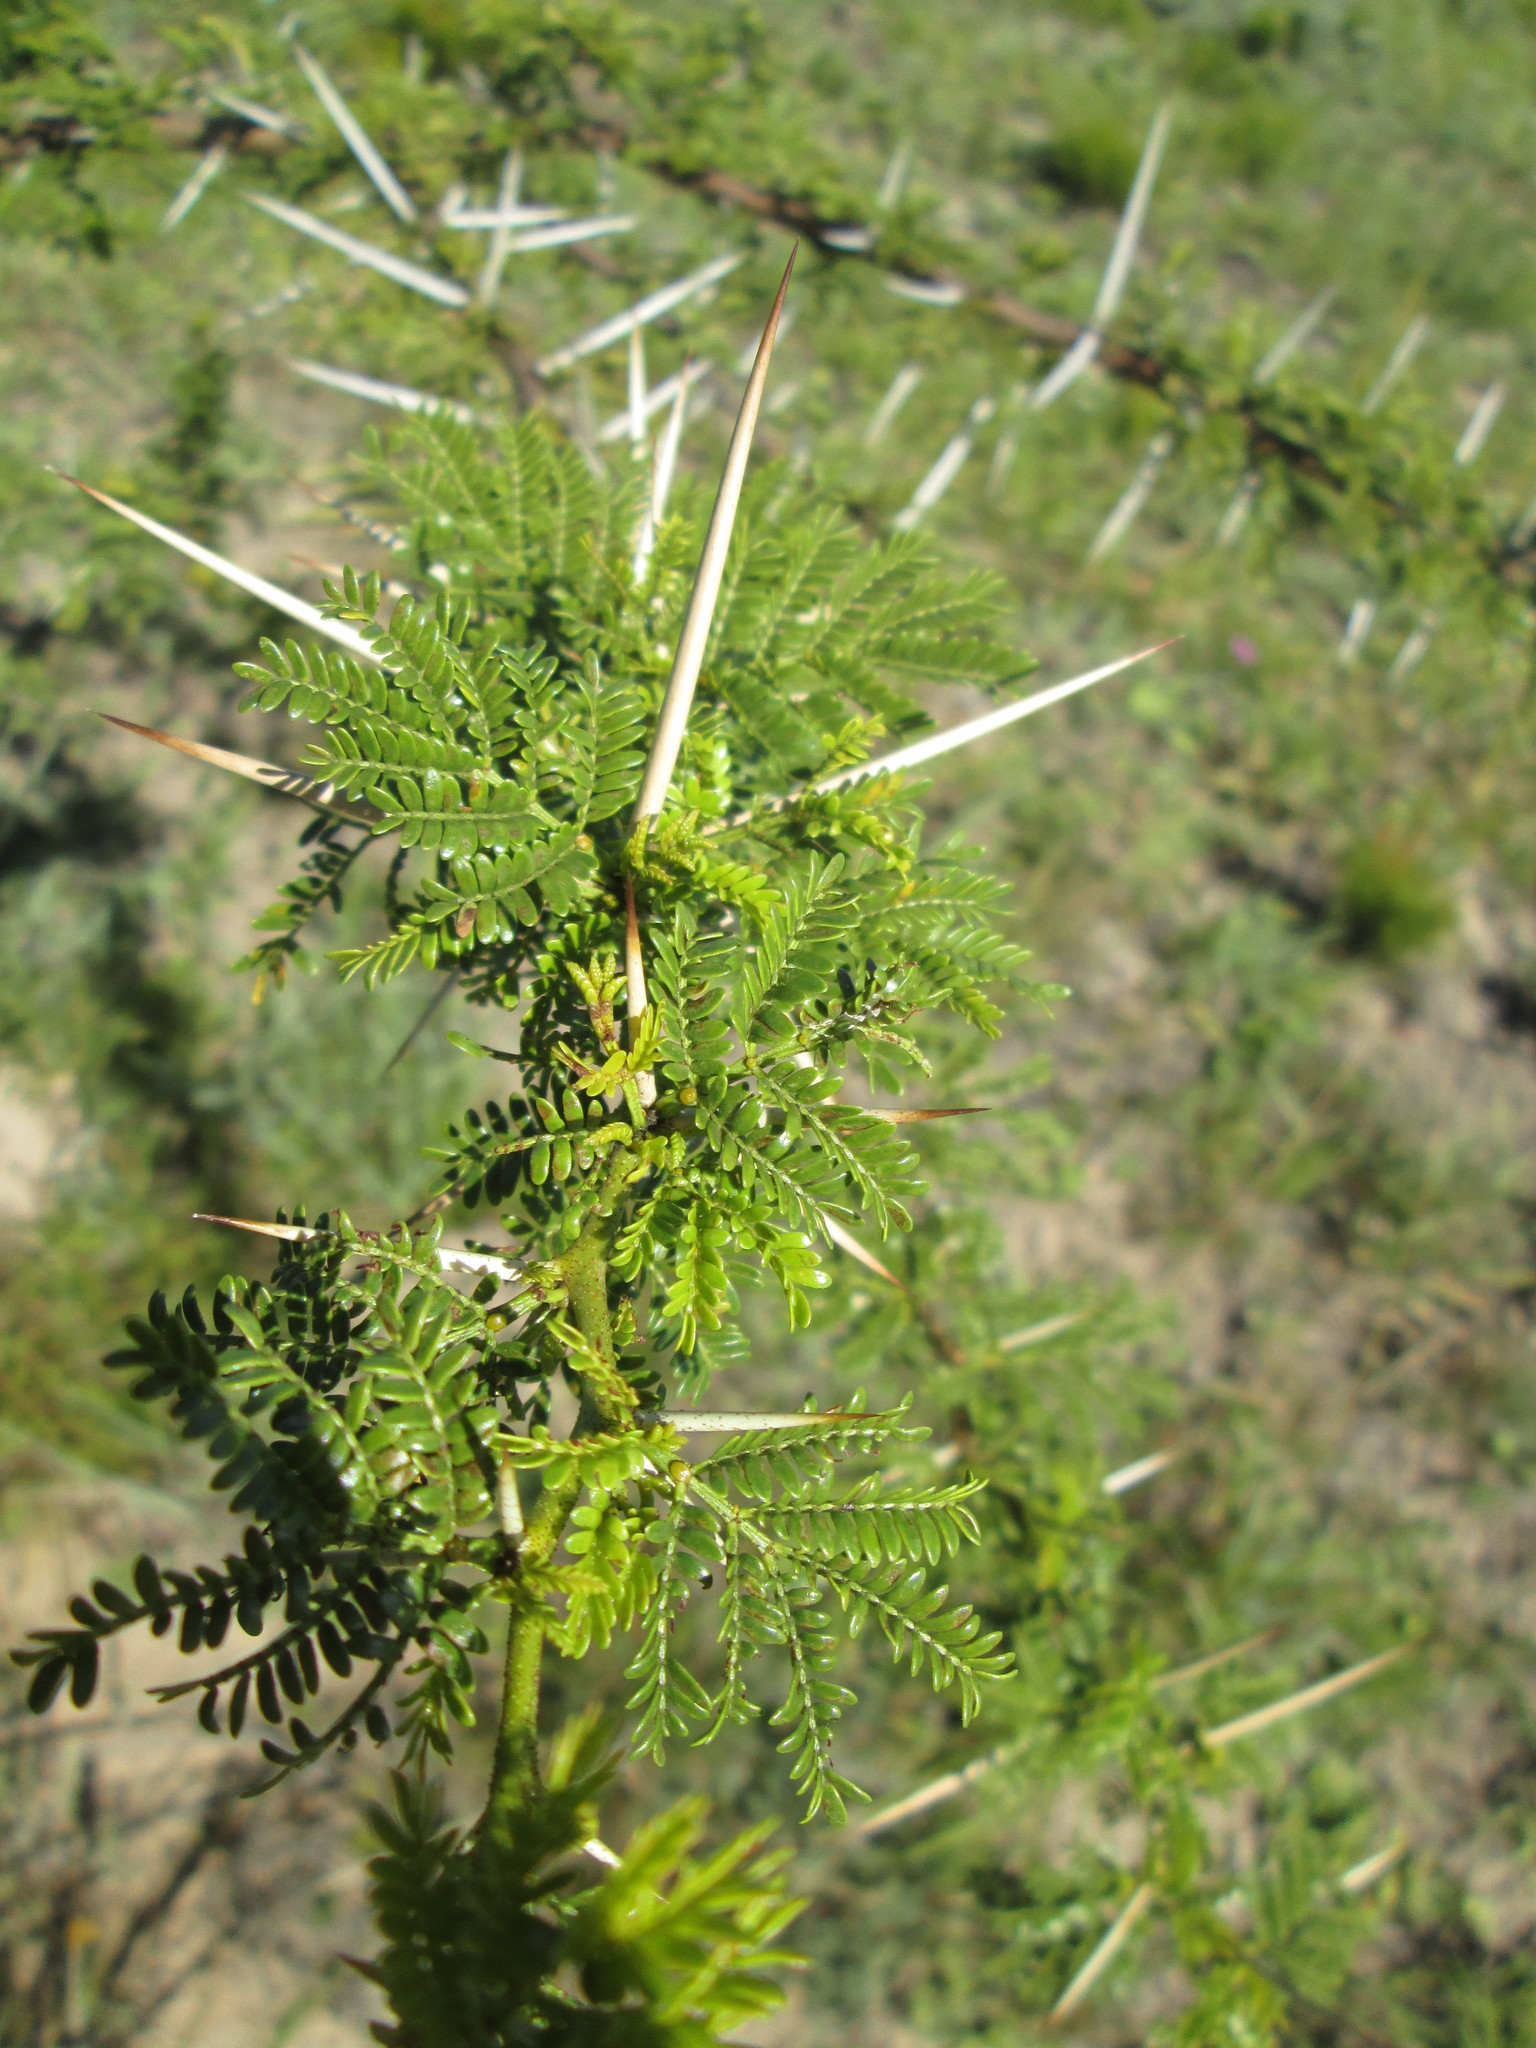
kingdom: Plantae
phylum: Tracheophyta
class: Magnoliopsida
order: Fabales
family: Fabaceae
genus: Vachellia
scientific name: Vachellia karroo
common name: Sweet thorn
